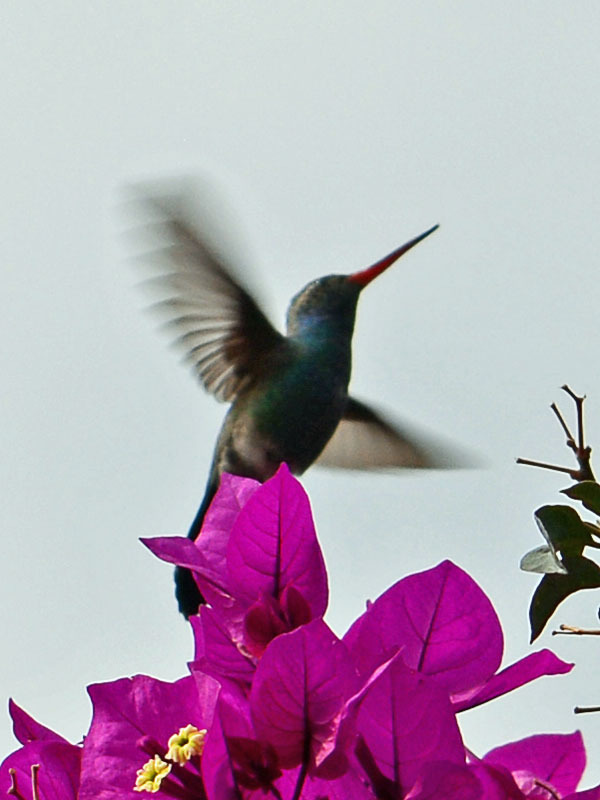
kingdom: Animalia
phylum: Chordata
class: Aves
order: Apodiformes
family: Trochilidae
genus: Cynanthus
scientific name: Cynanthus latirostris
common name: Broad-billed hummingbird
